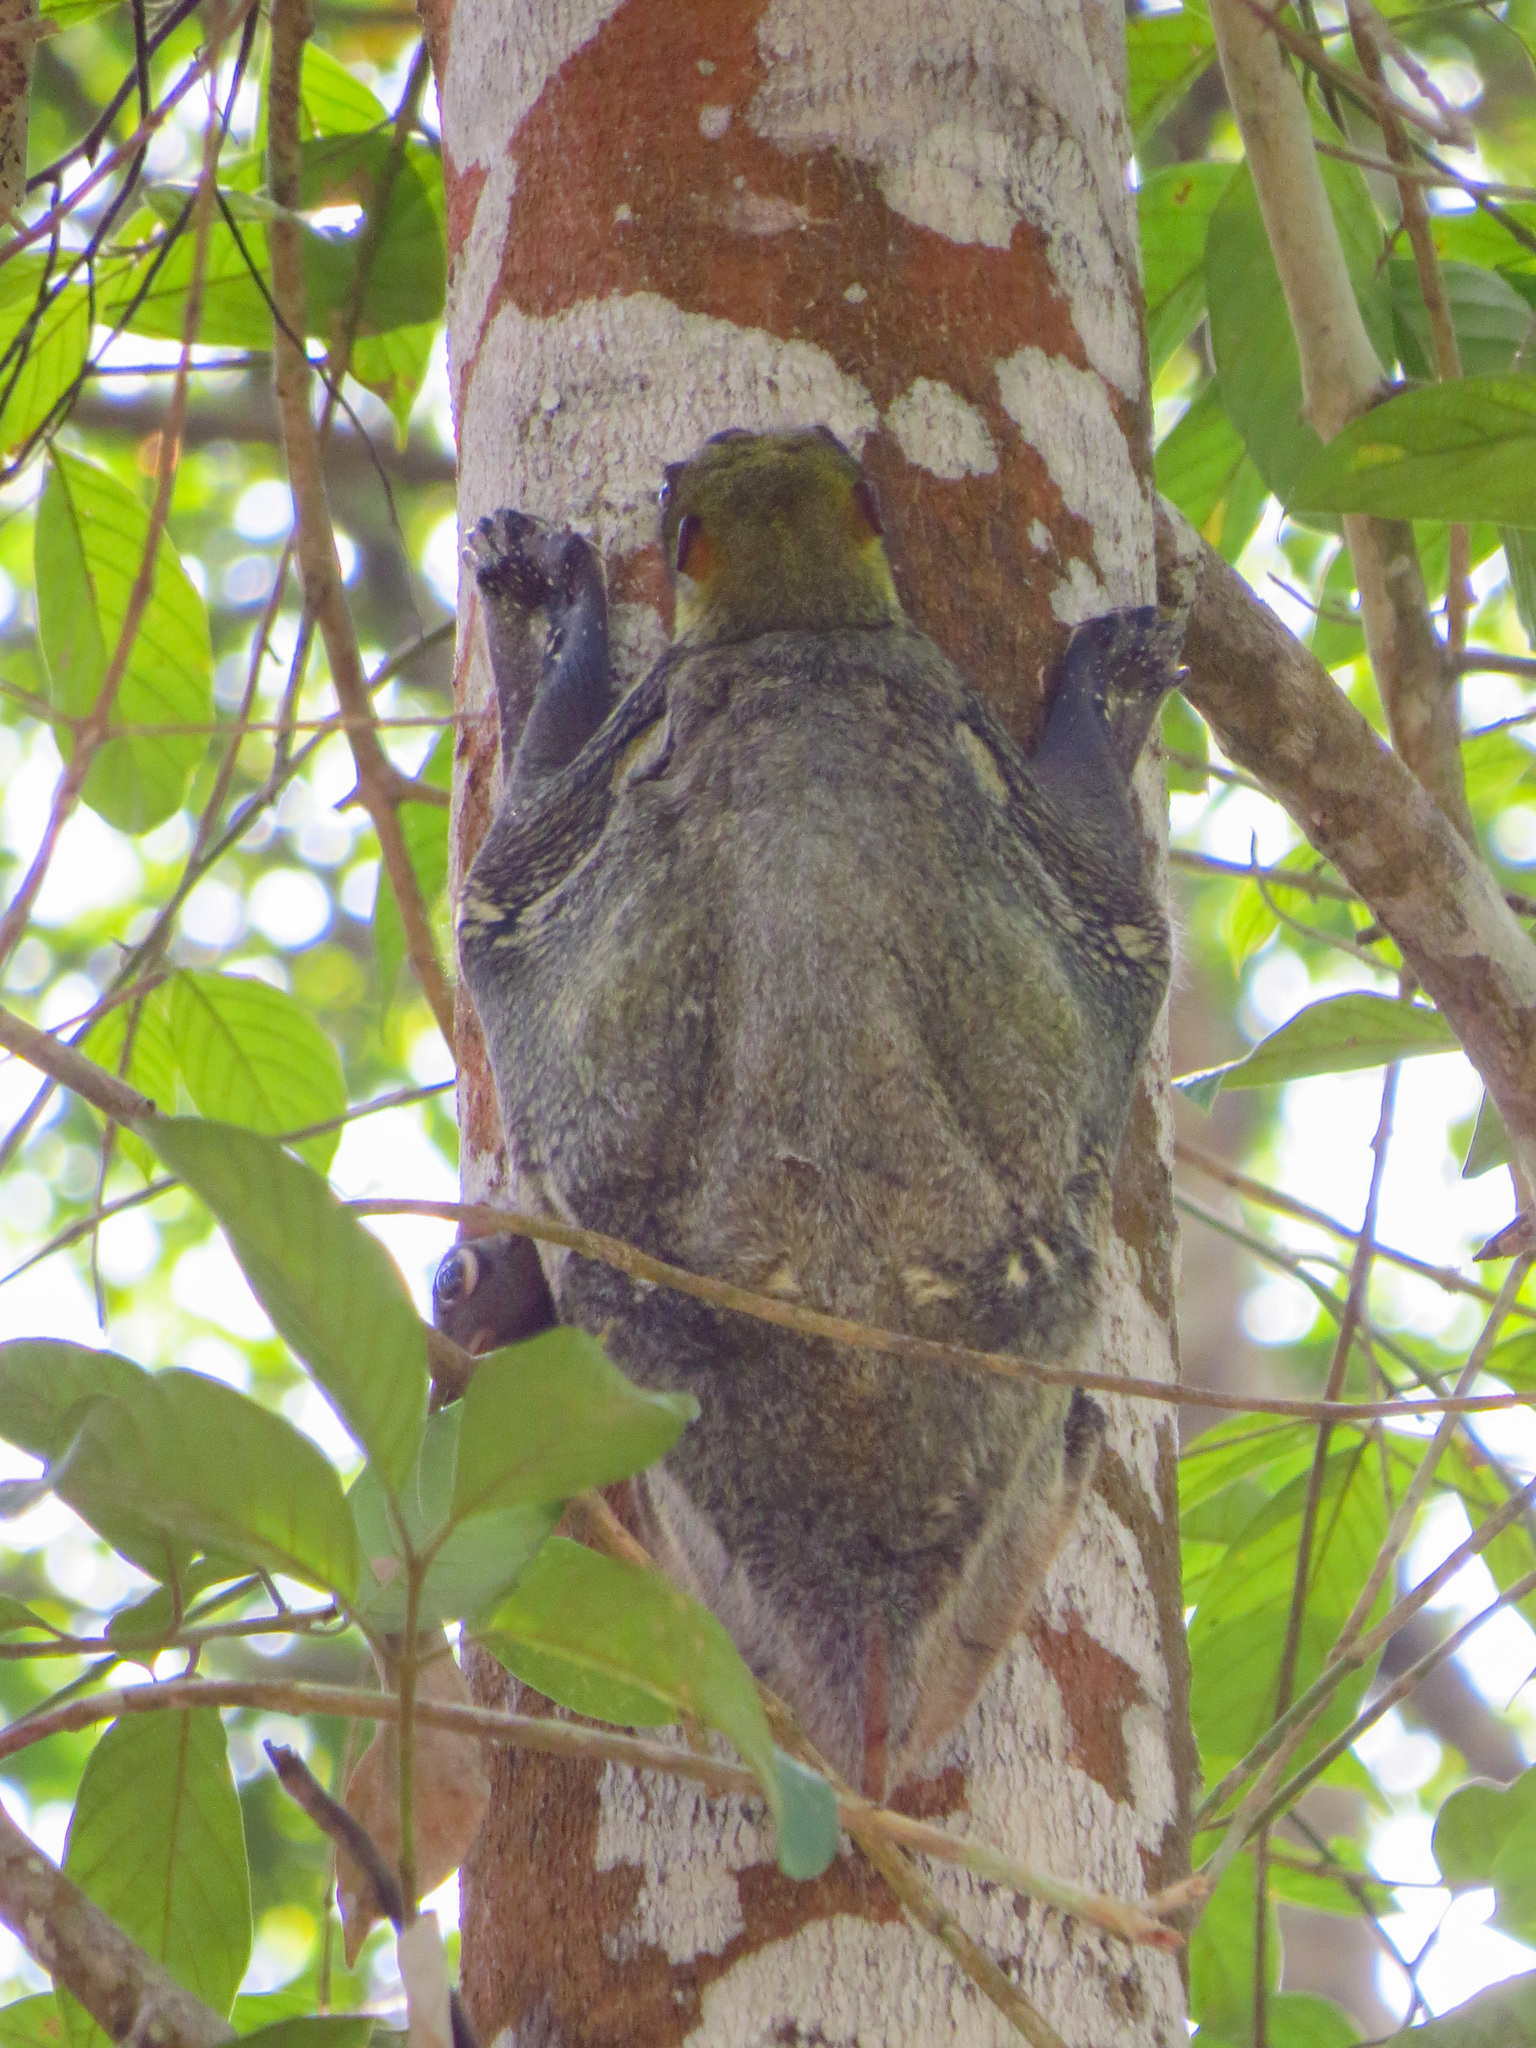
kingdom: Animalia
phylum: Chordata
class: Mammalia
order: Dermoptera
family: Cynocephalidae
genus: Galeopterus
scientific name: Galeopterus variegatus
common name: Sunda flying lemur
